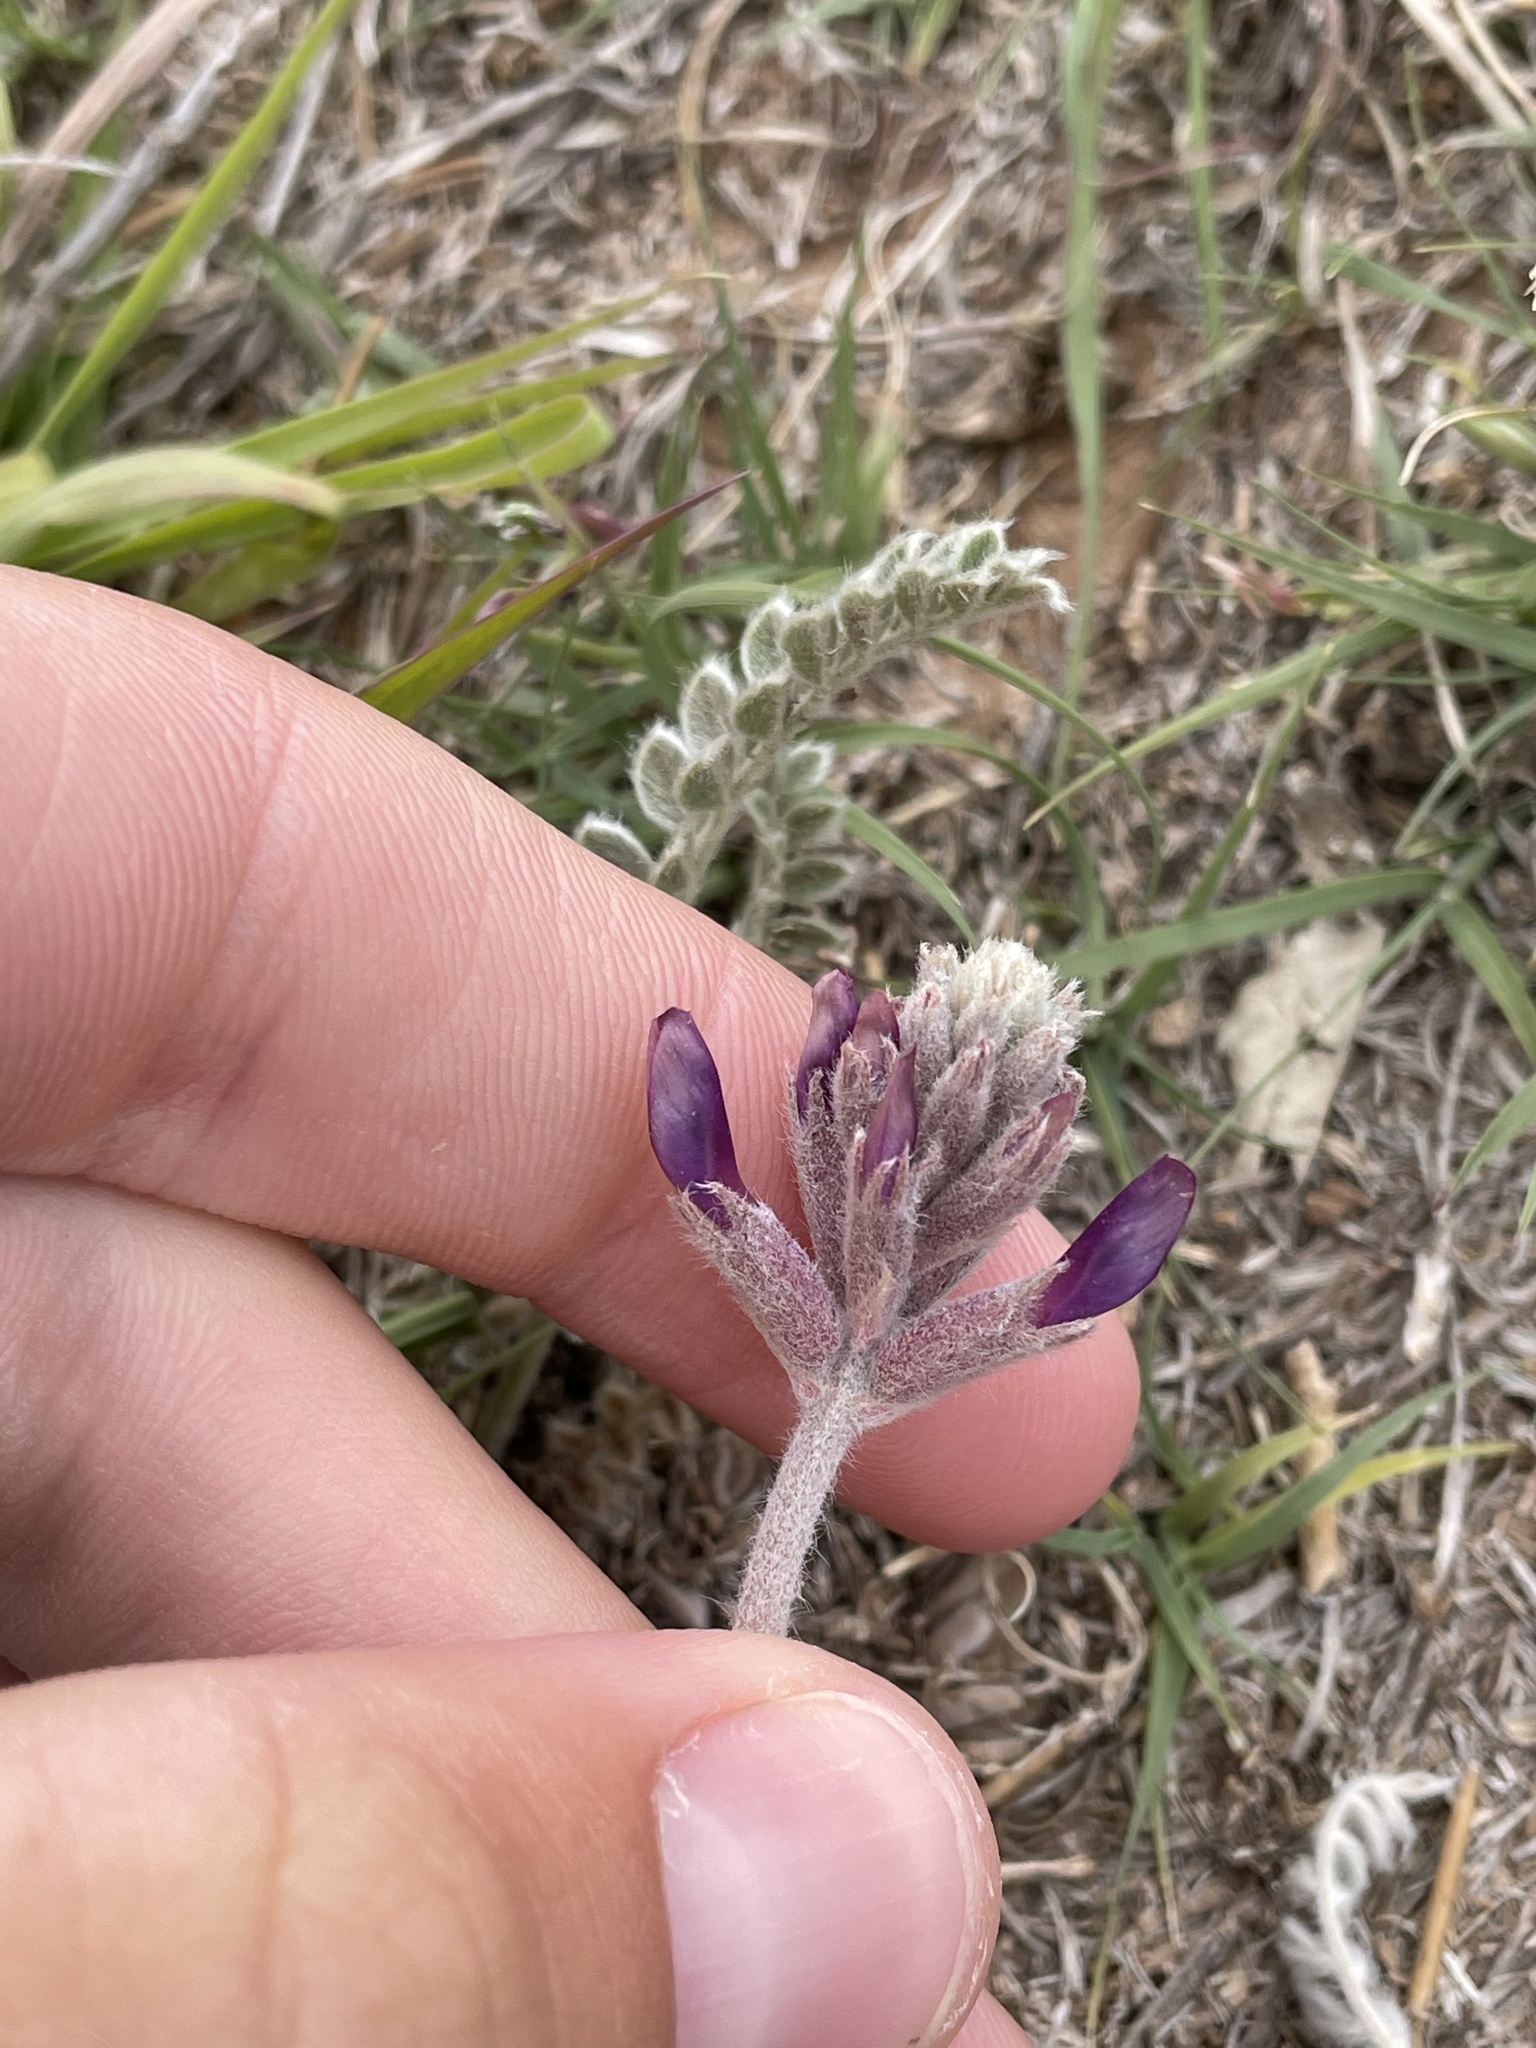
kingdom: Plantae
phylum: Tracheophyta
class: Magnoliopsida
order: Fabales
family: Fabaceae
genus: Astragalus
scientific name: Astragalus mollissimus
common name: Woolly locoweed
